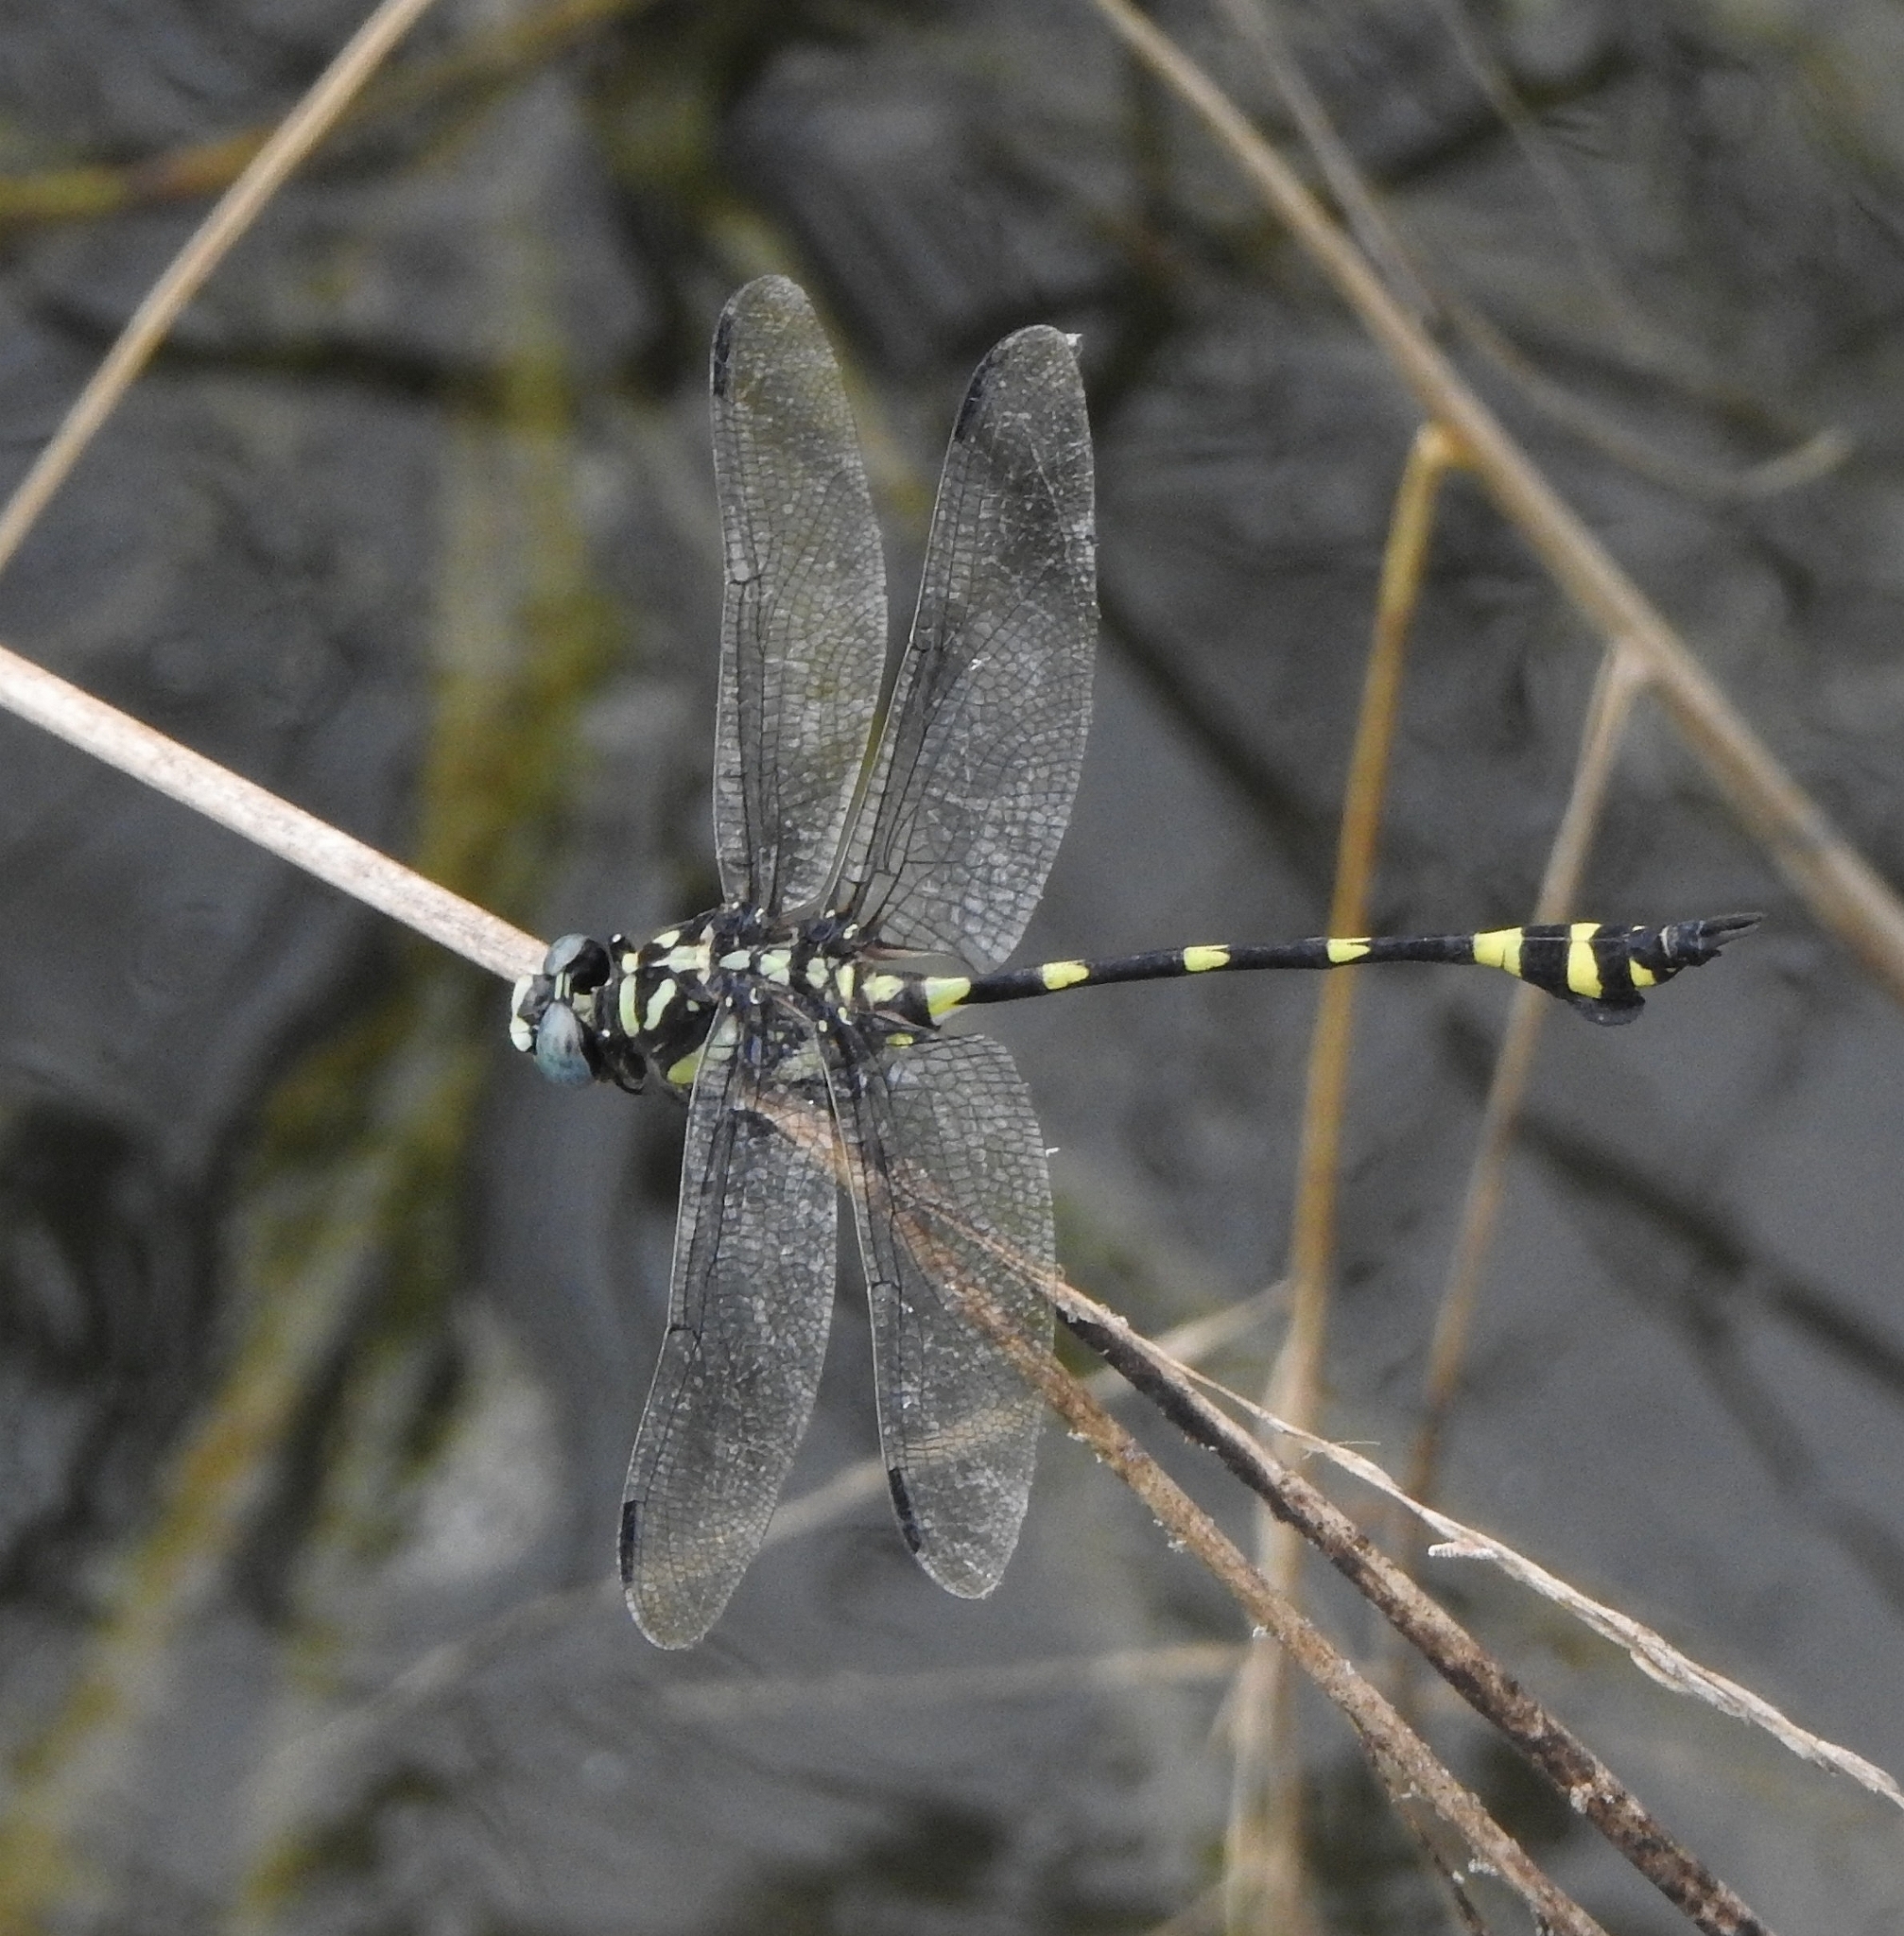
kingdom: Animalia
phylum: Arthropoda
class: Insecta
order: Odonata
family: Gomphidae
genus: Ictinogomphus
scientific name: Ictinogomphus rapax
